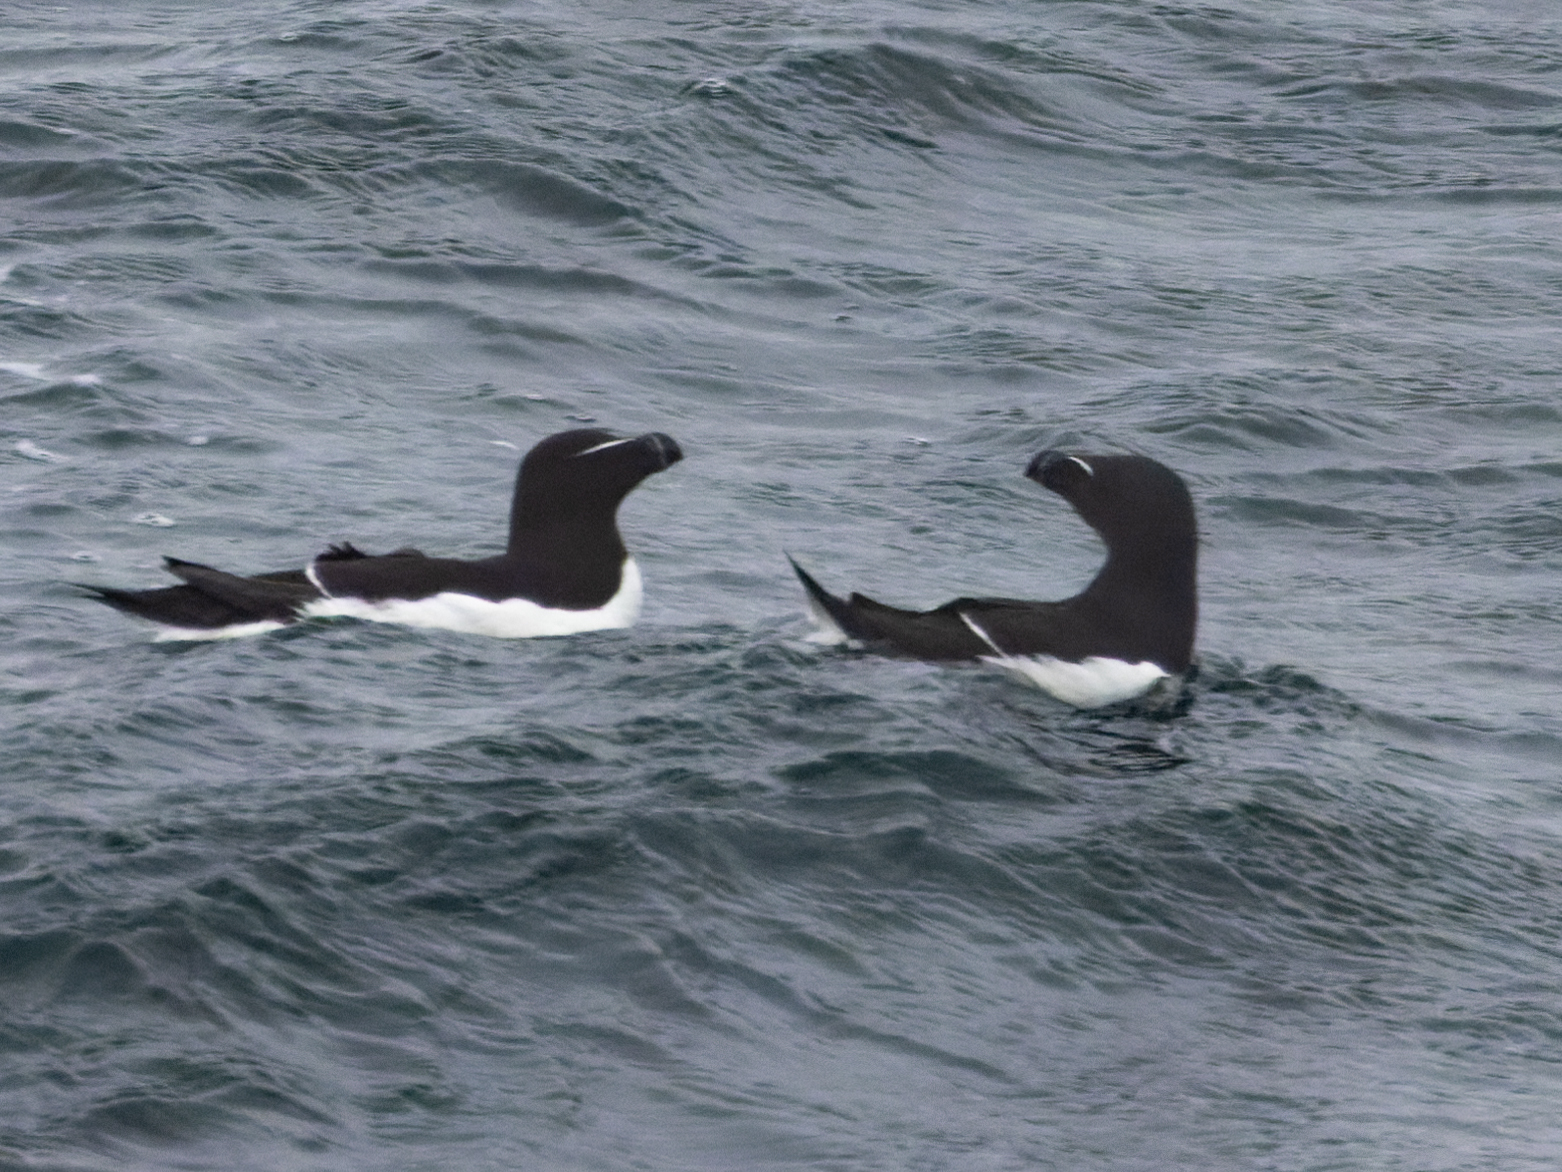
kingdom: Animalia
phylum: Chordata
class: Aves
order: Charadriiformes
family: Alcidae
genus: Alca
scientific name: Alca torda
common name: Razorbill
